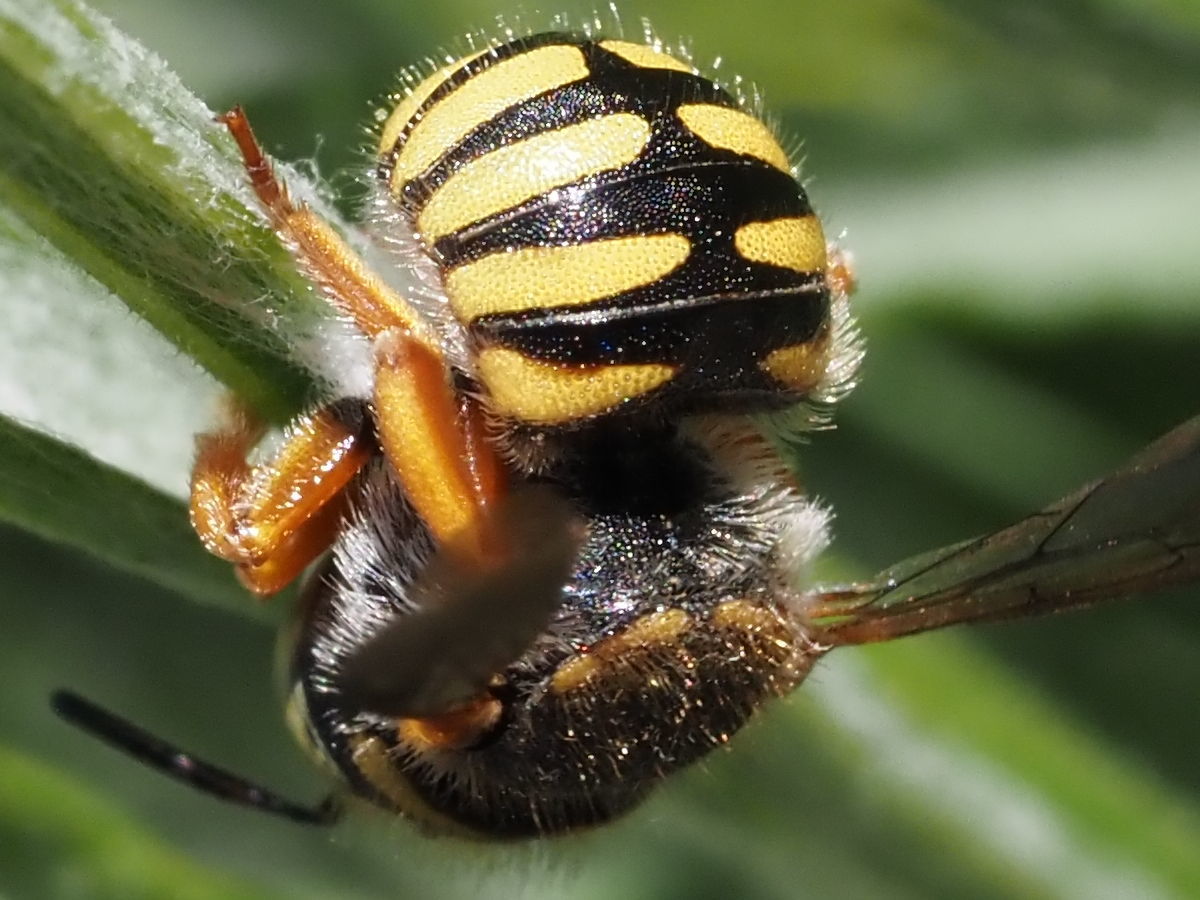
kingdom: Animalia
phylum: Arthropoda
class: Insecta
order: Hymenoptera
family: Megachilidae
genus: Anthidium
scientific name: Anthidium oblongatum
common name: Oblong wool carder bee
